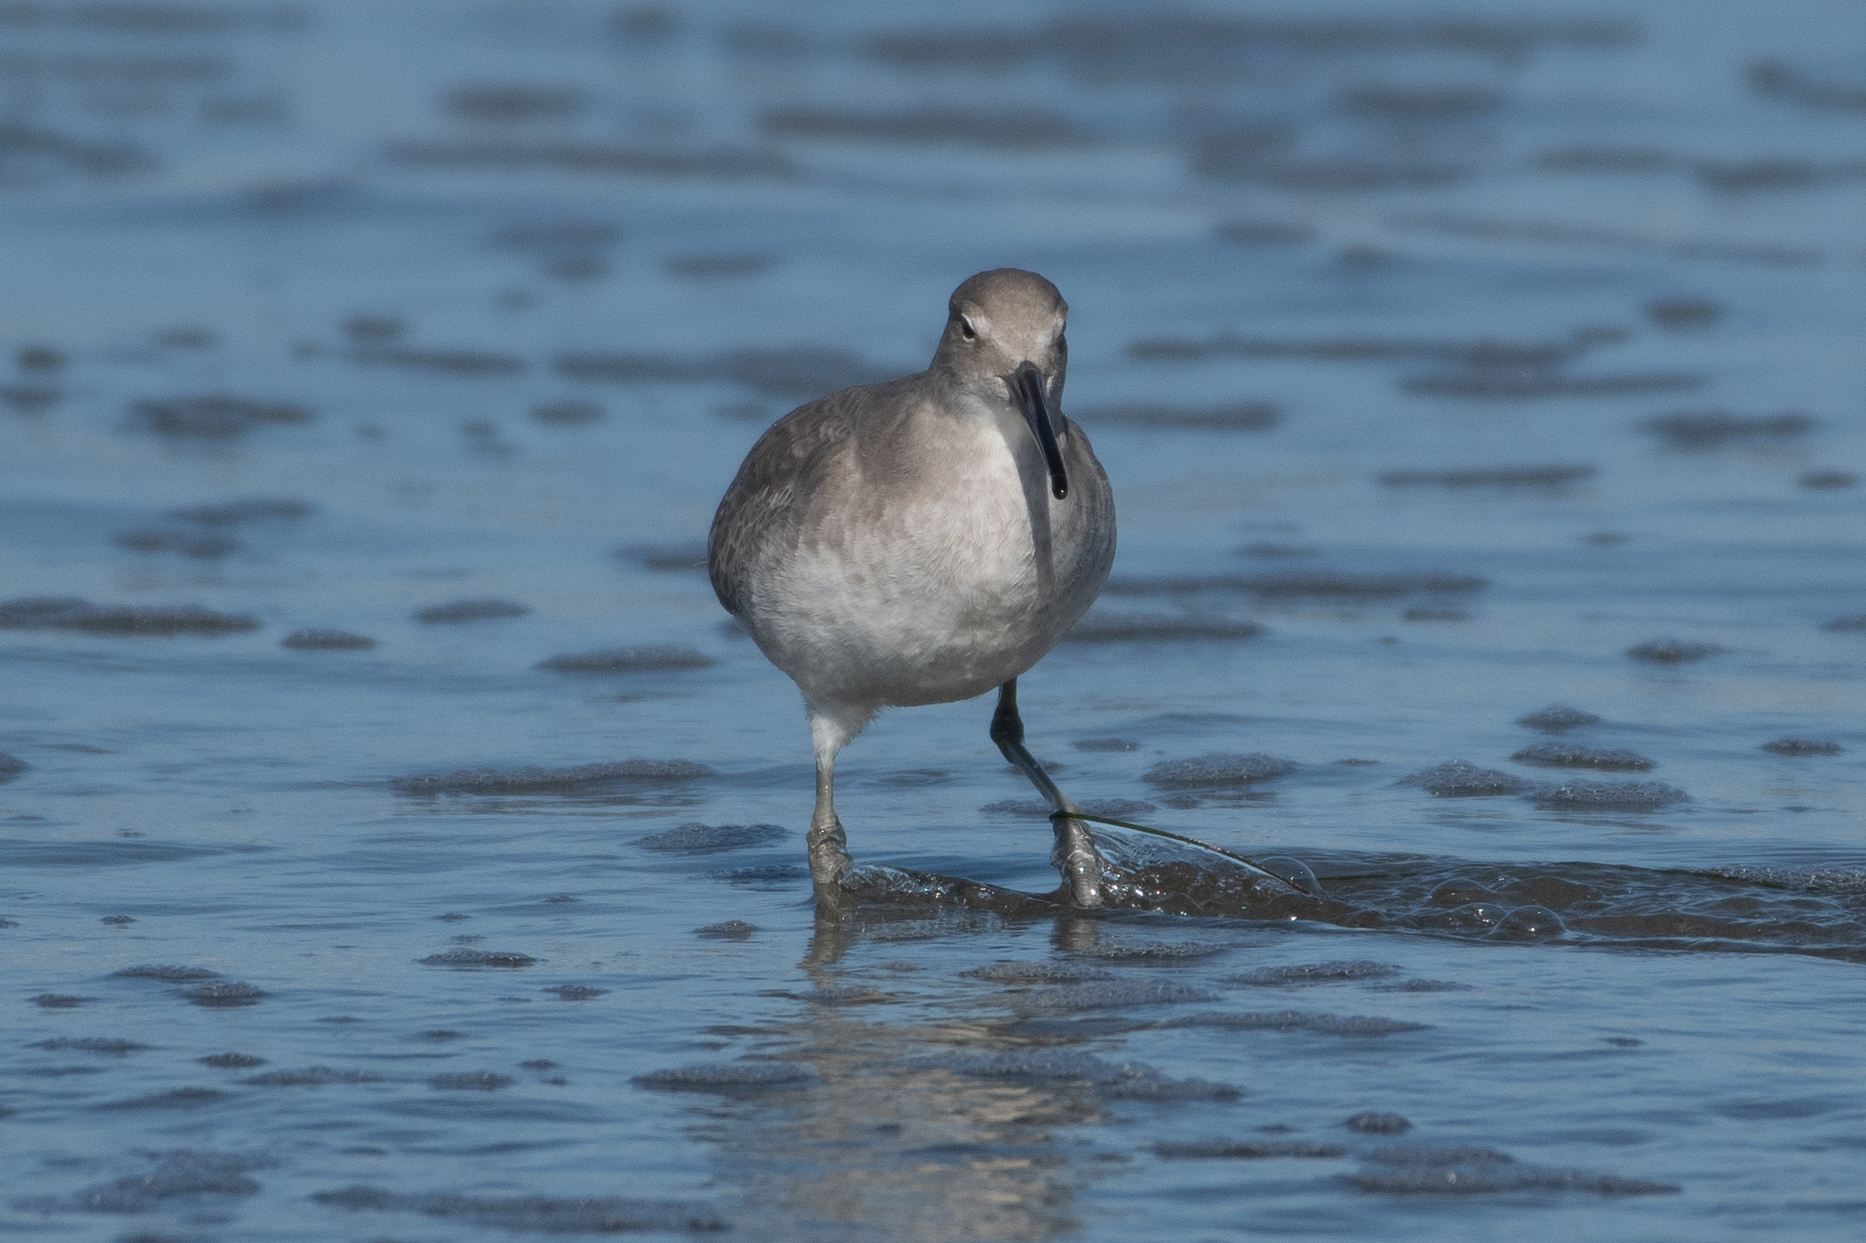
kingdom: Animalia
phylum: Chordata
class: Aves
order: Charadriiformes
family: Scolopacidae
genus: Tringa
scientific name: Tringa semipalmata
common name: Willet
